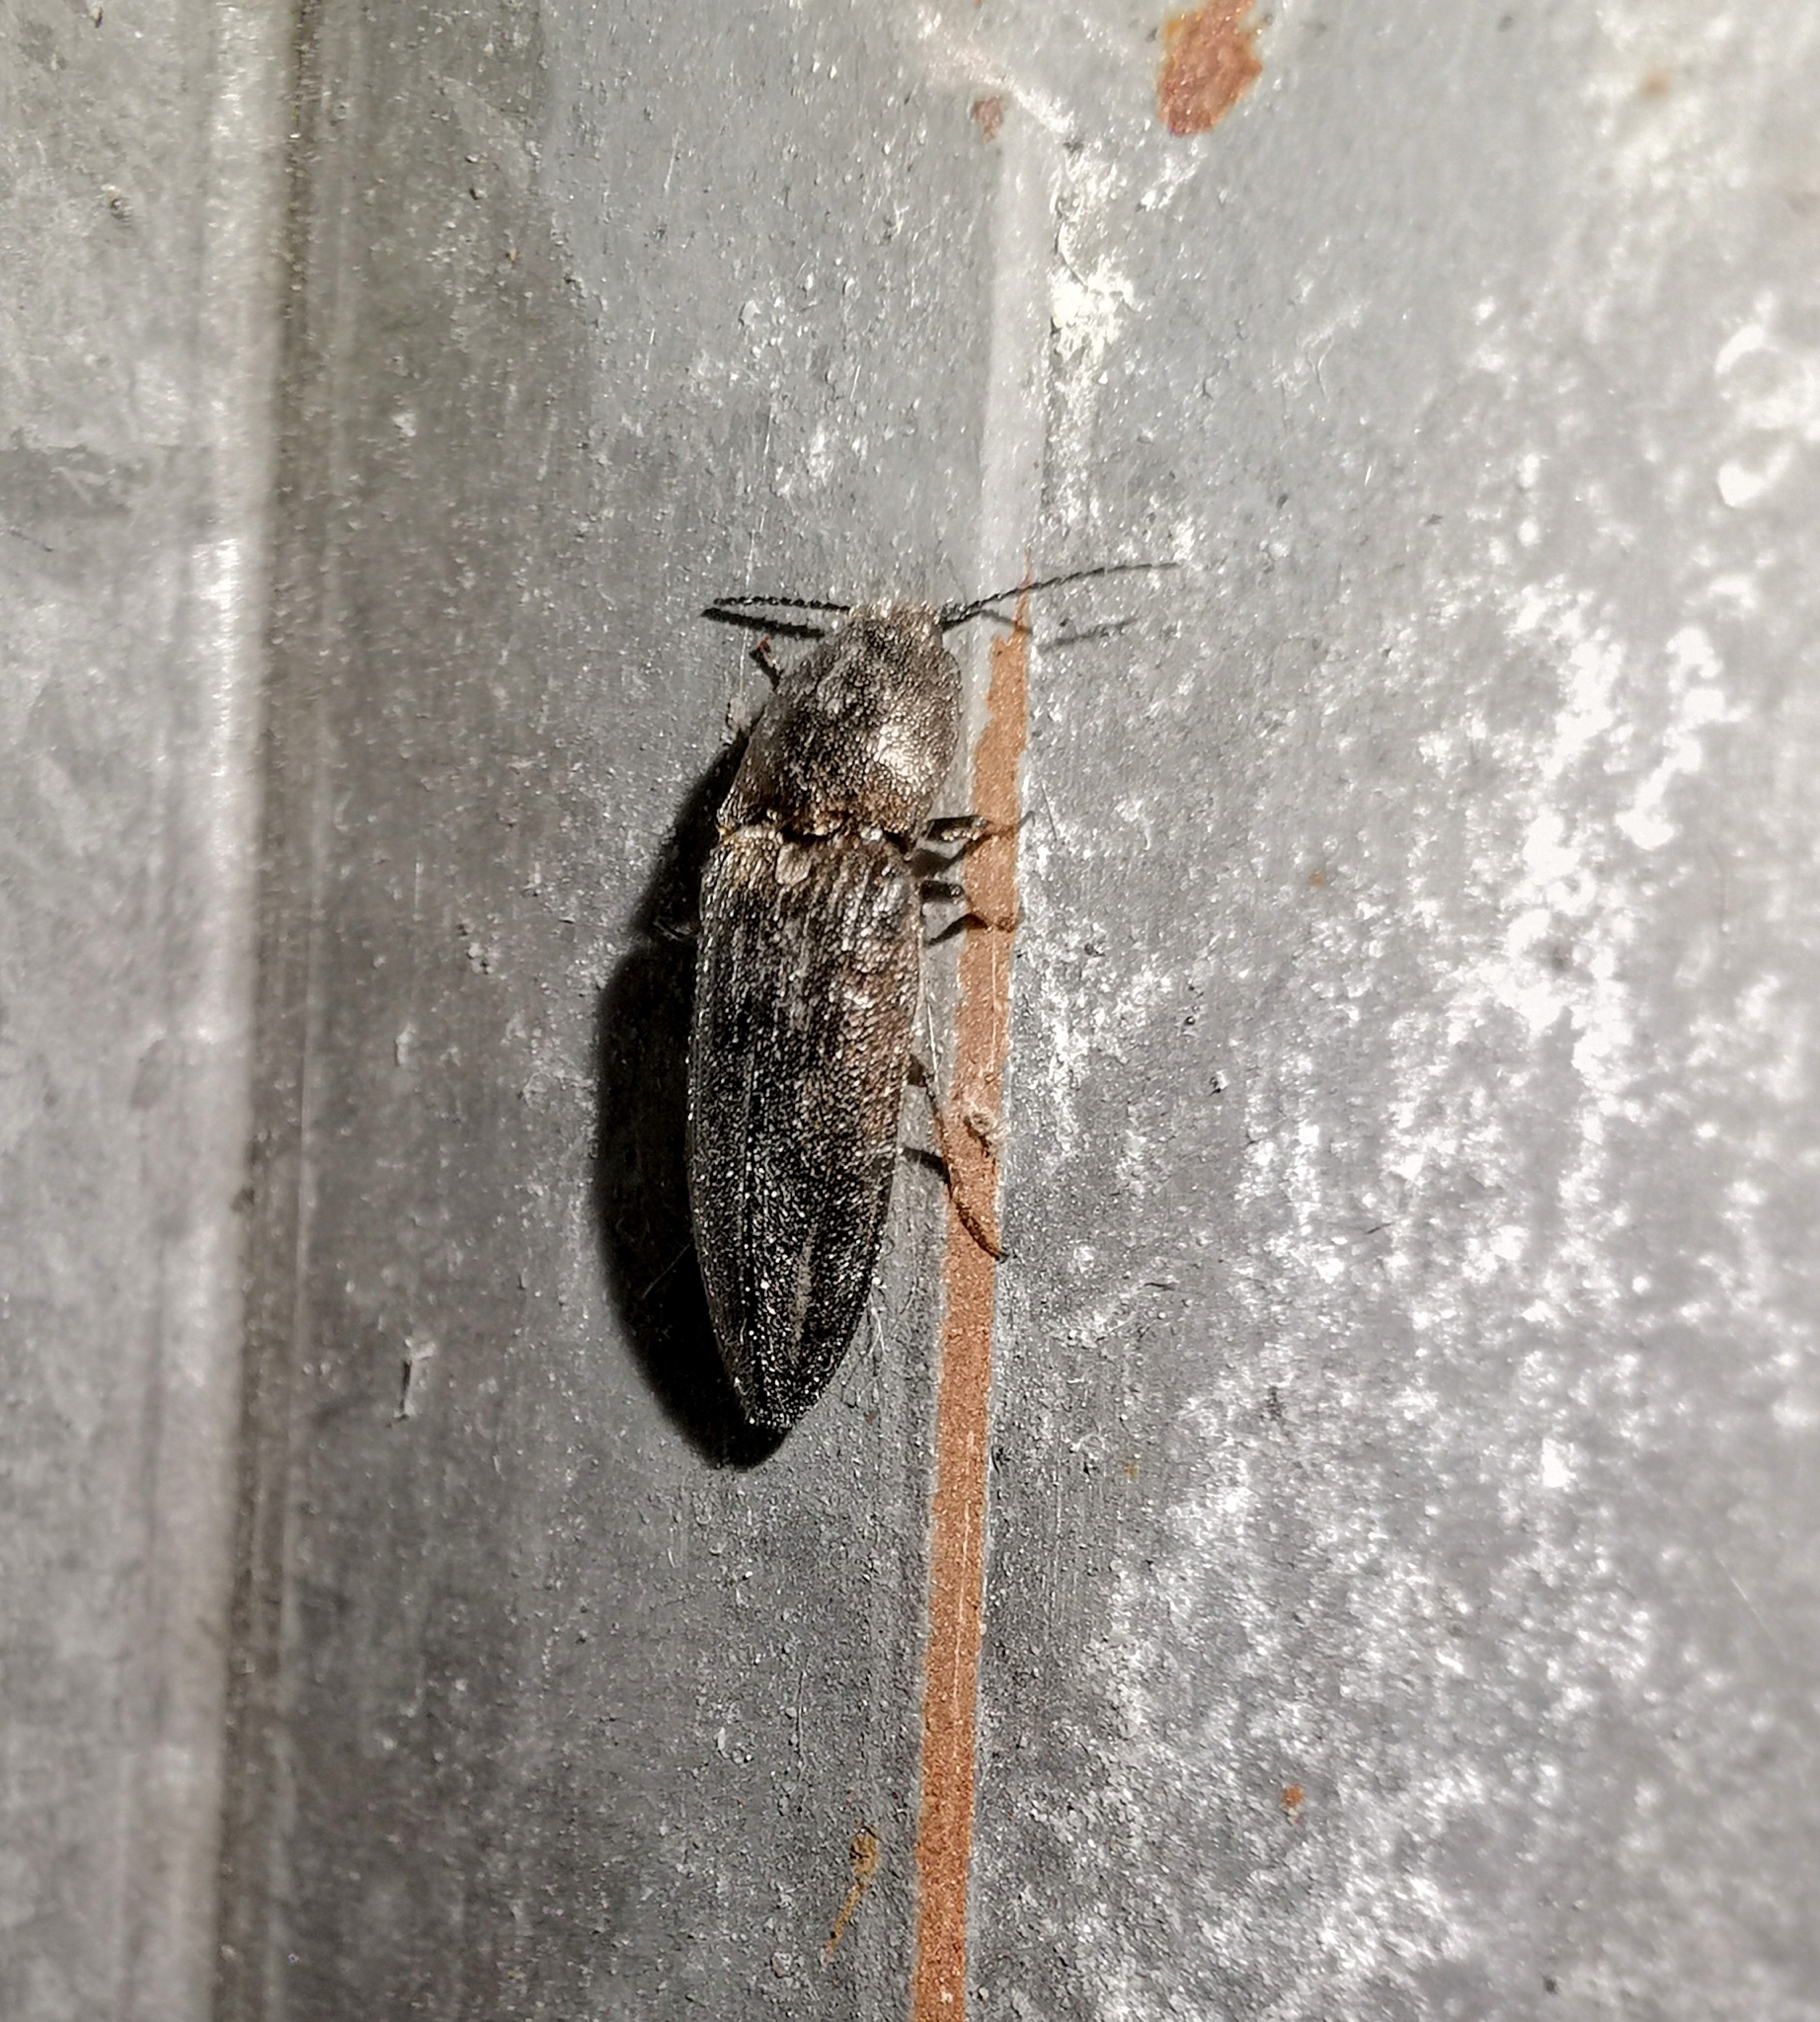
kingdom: Animalia
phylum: Arthropoda
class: Insecta
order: Coleoptera
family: Elateridae
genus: Cidnopus
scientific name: Cidnopus pilosus
